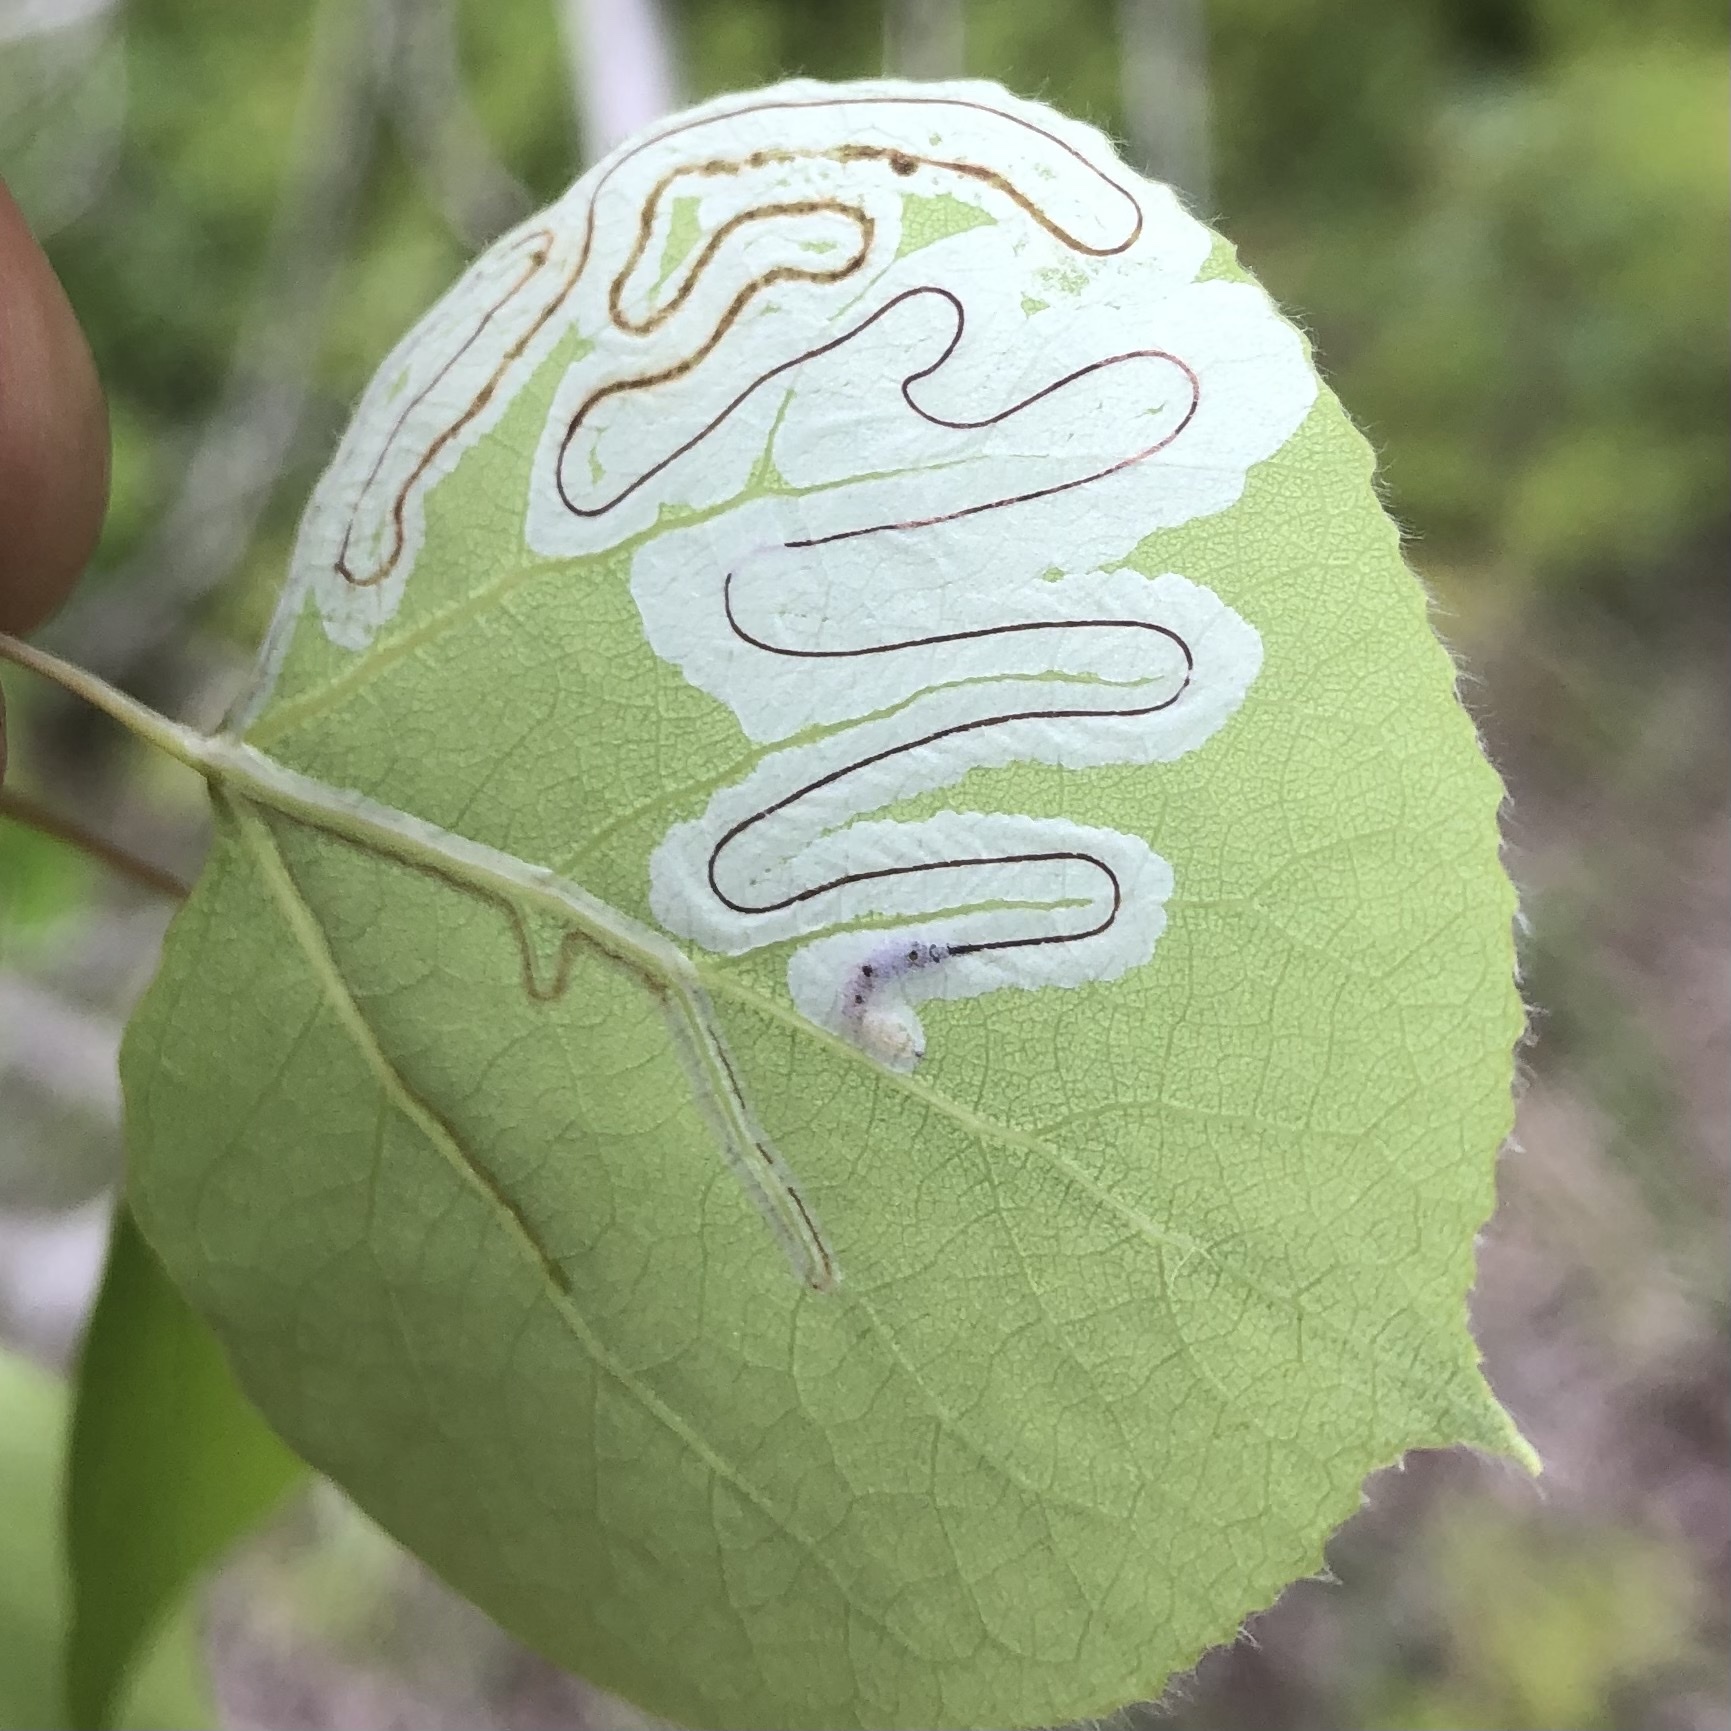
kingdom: Animalia
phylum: Arthropoda
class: Insecta
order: Lepidoptera
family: Gracillariidae
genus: Phyllocnistis
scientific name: Phyllocnistis populiella
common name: Aspen serpentine leafminer moth
